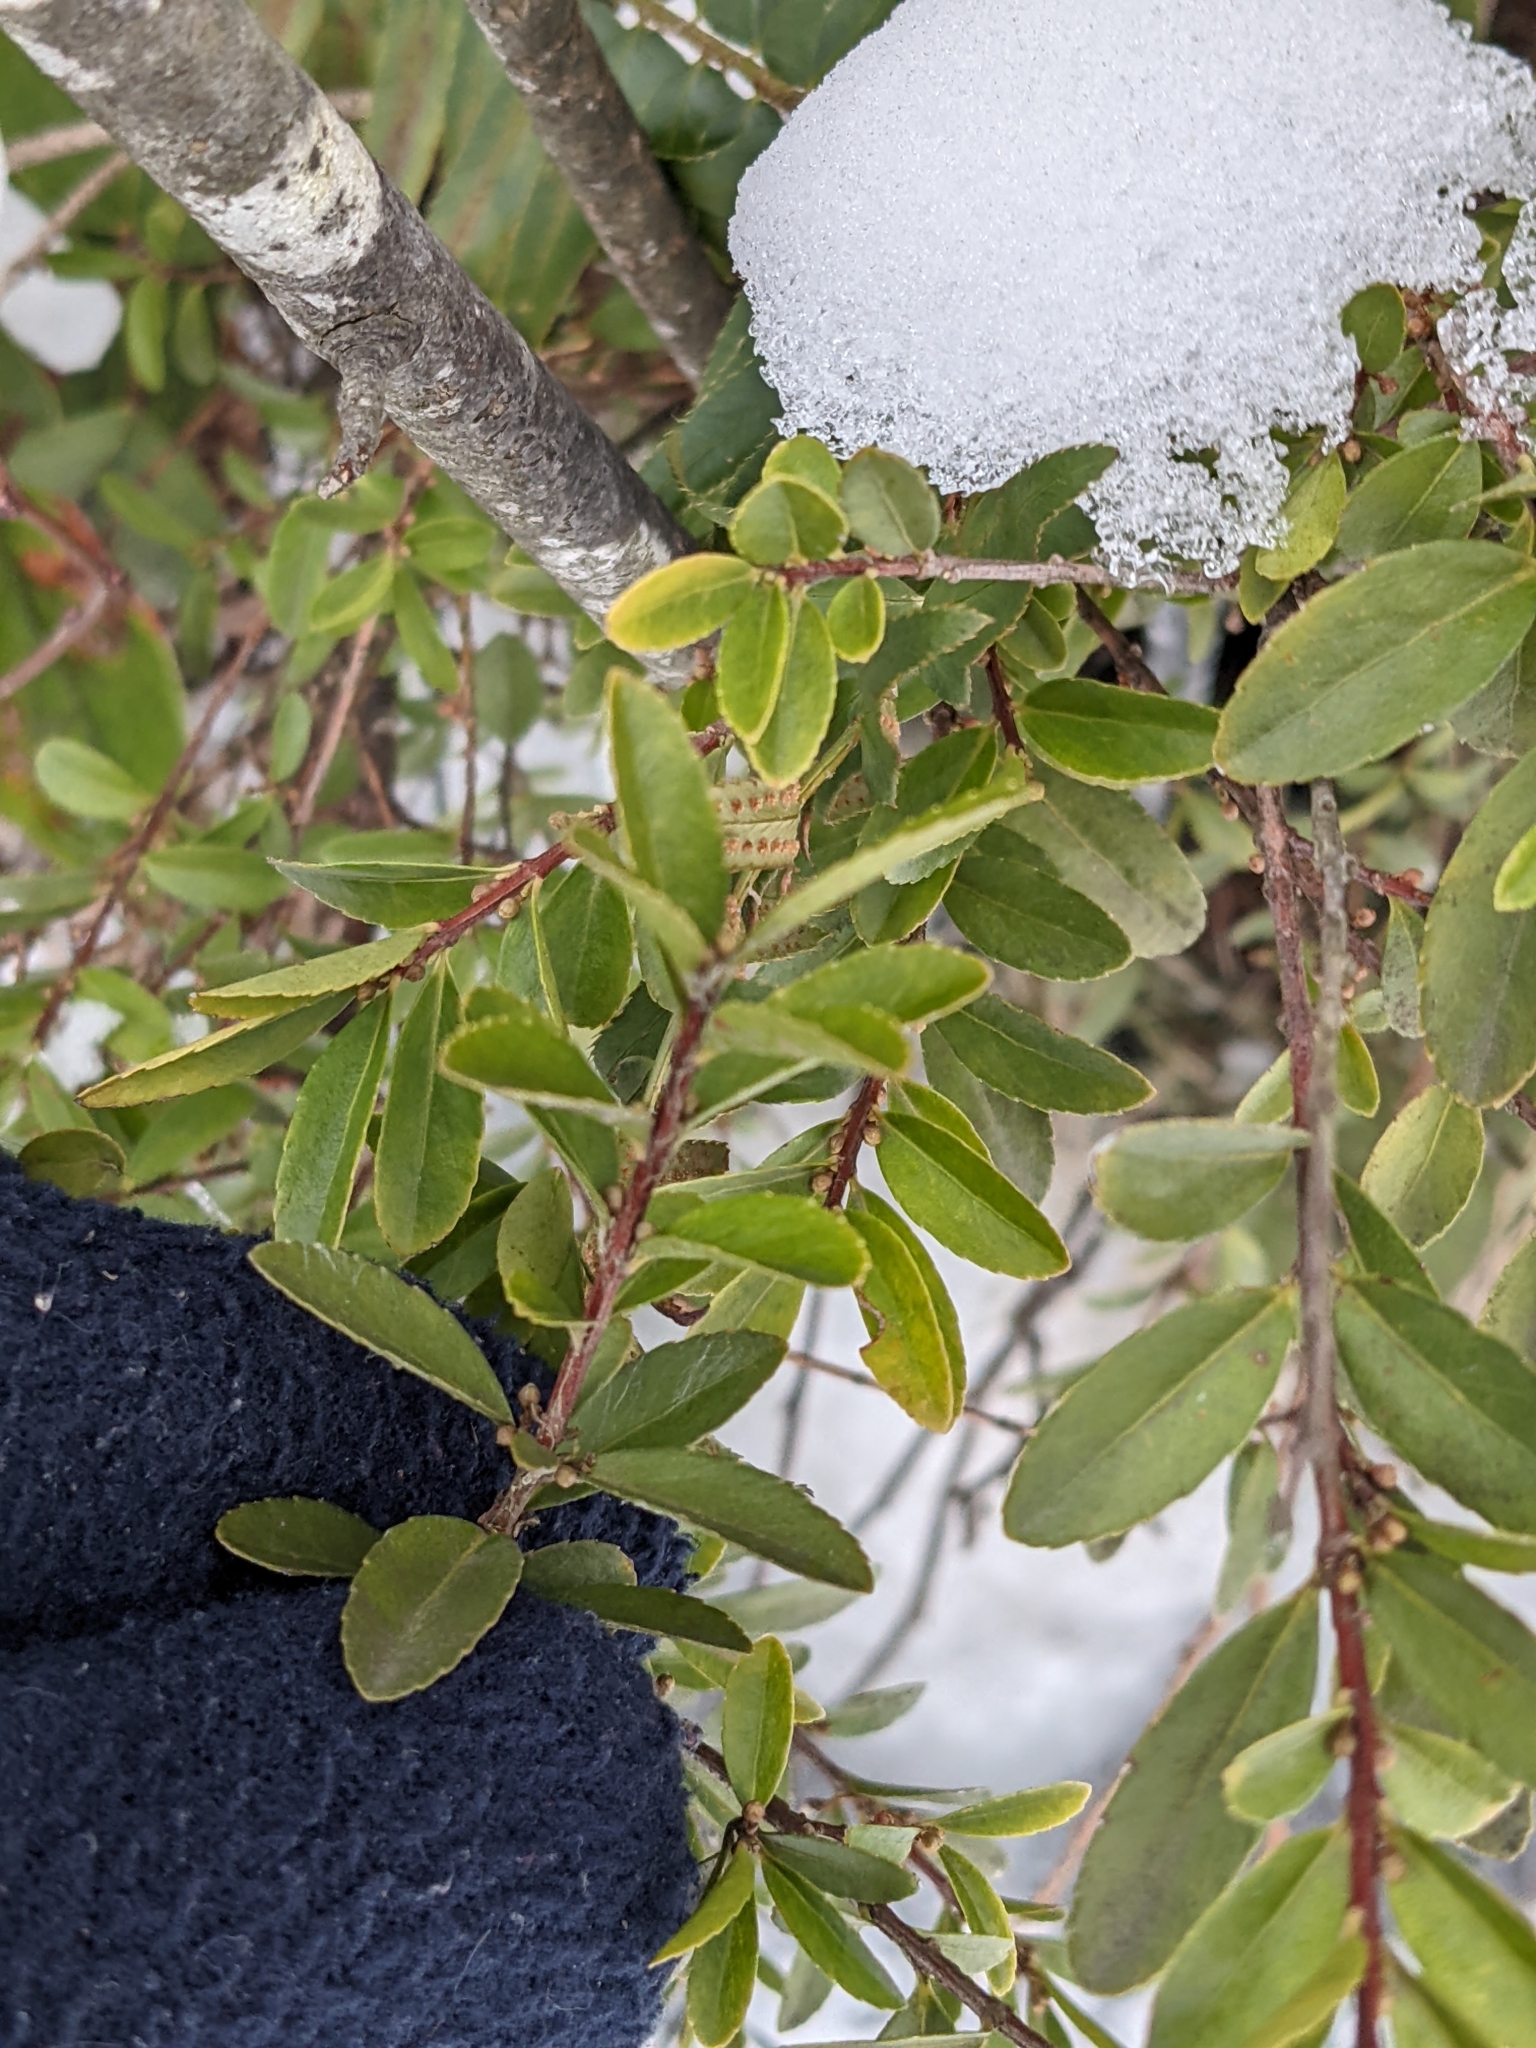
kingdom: Plantae
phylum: Tracheophyta
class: Magnoliopsida
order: Celastrales
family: Celastraceae
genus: Paxistima
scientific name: Paxistima myrsinites
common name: Mountain-lover
